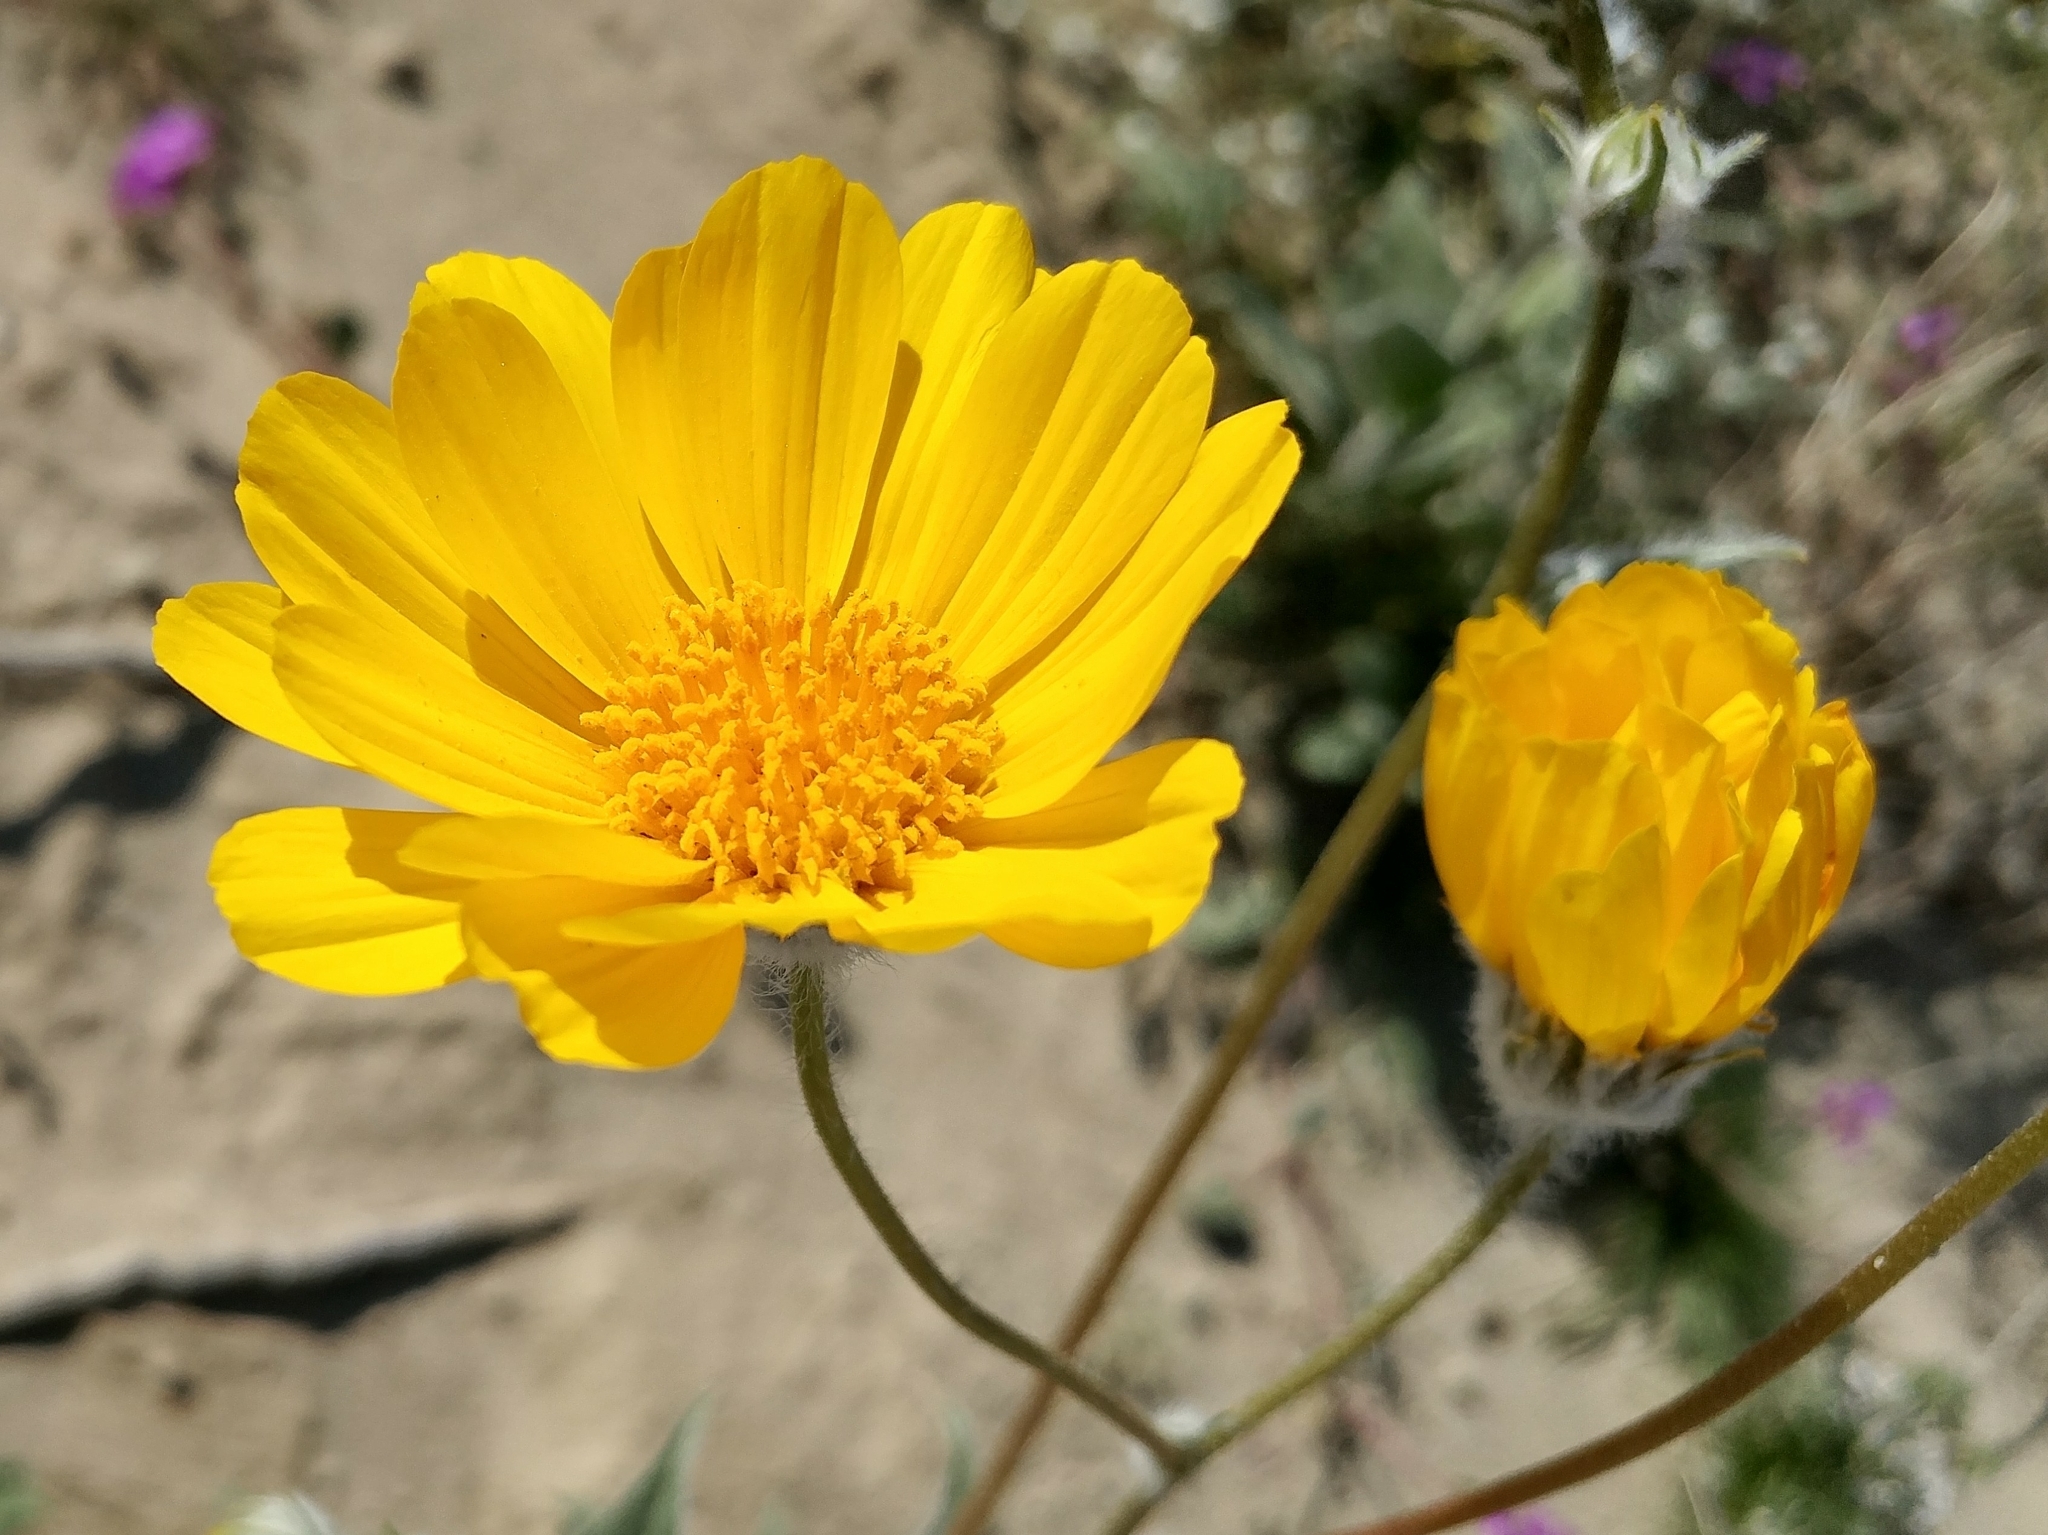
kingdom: Plantae
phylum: Tracheophyta
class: Magnoliopsida
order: Asterales
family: Asteraceae
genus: Geraea
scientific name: Geraea canescens
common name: Desert-gold
